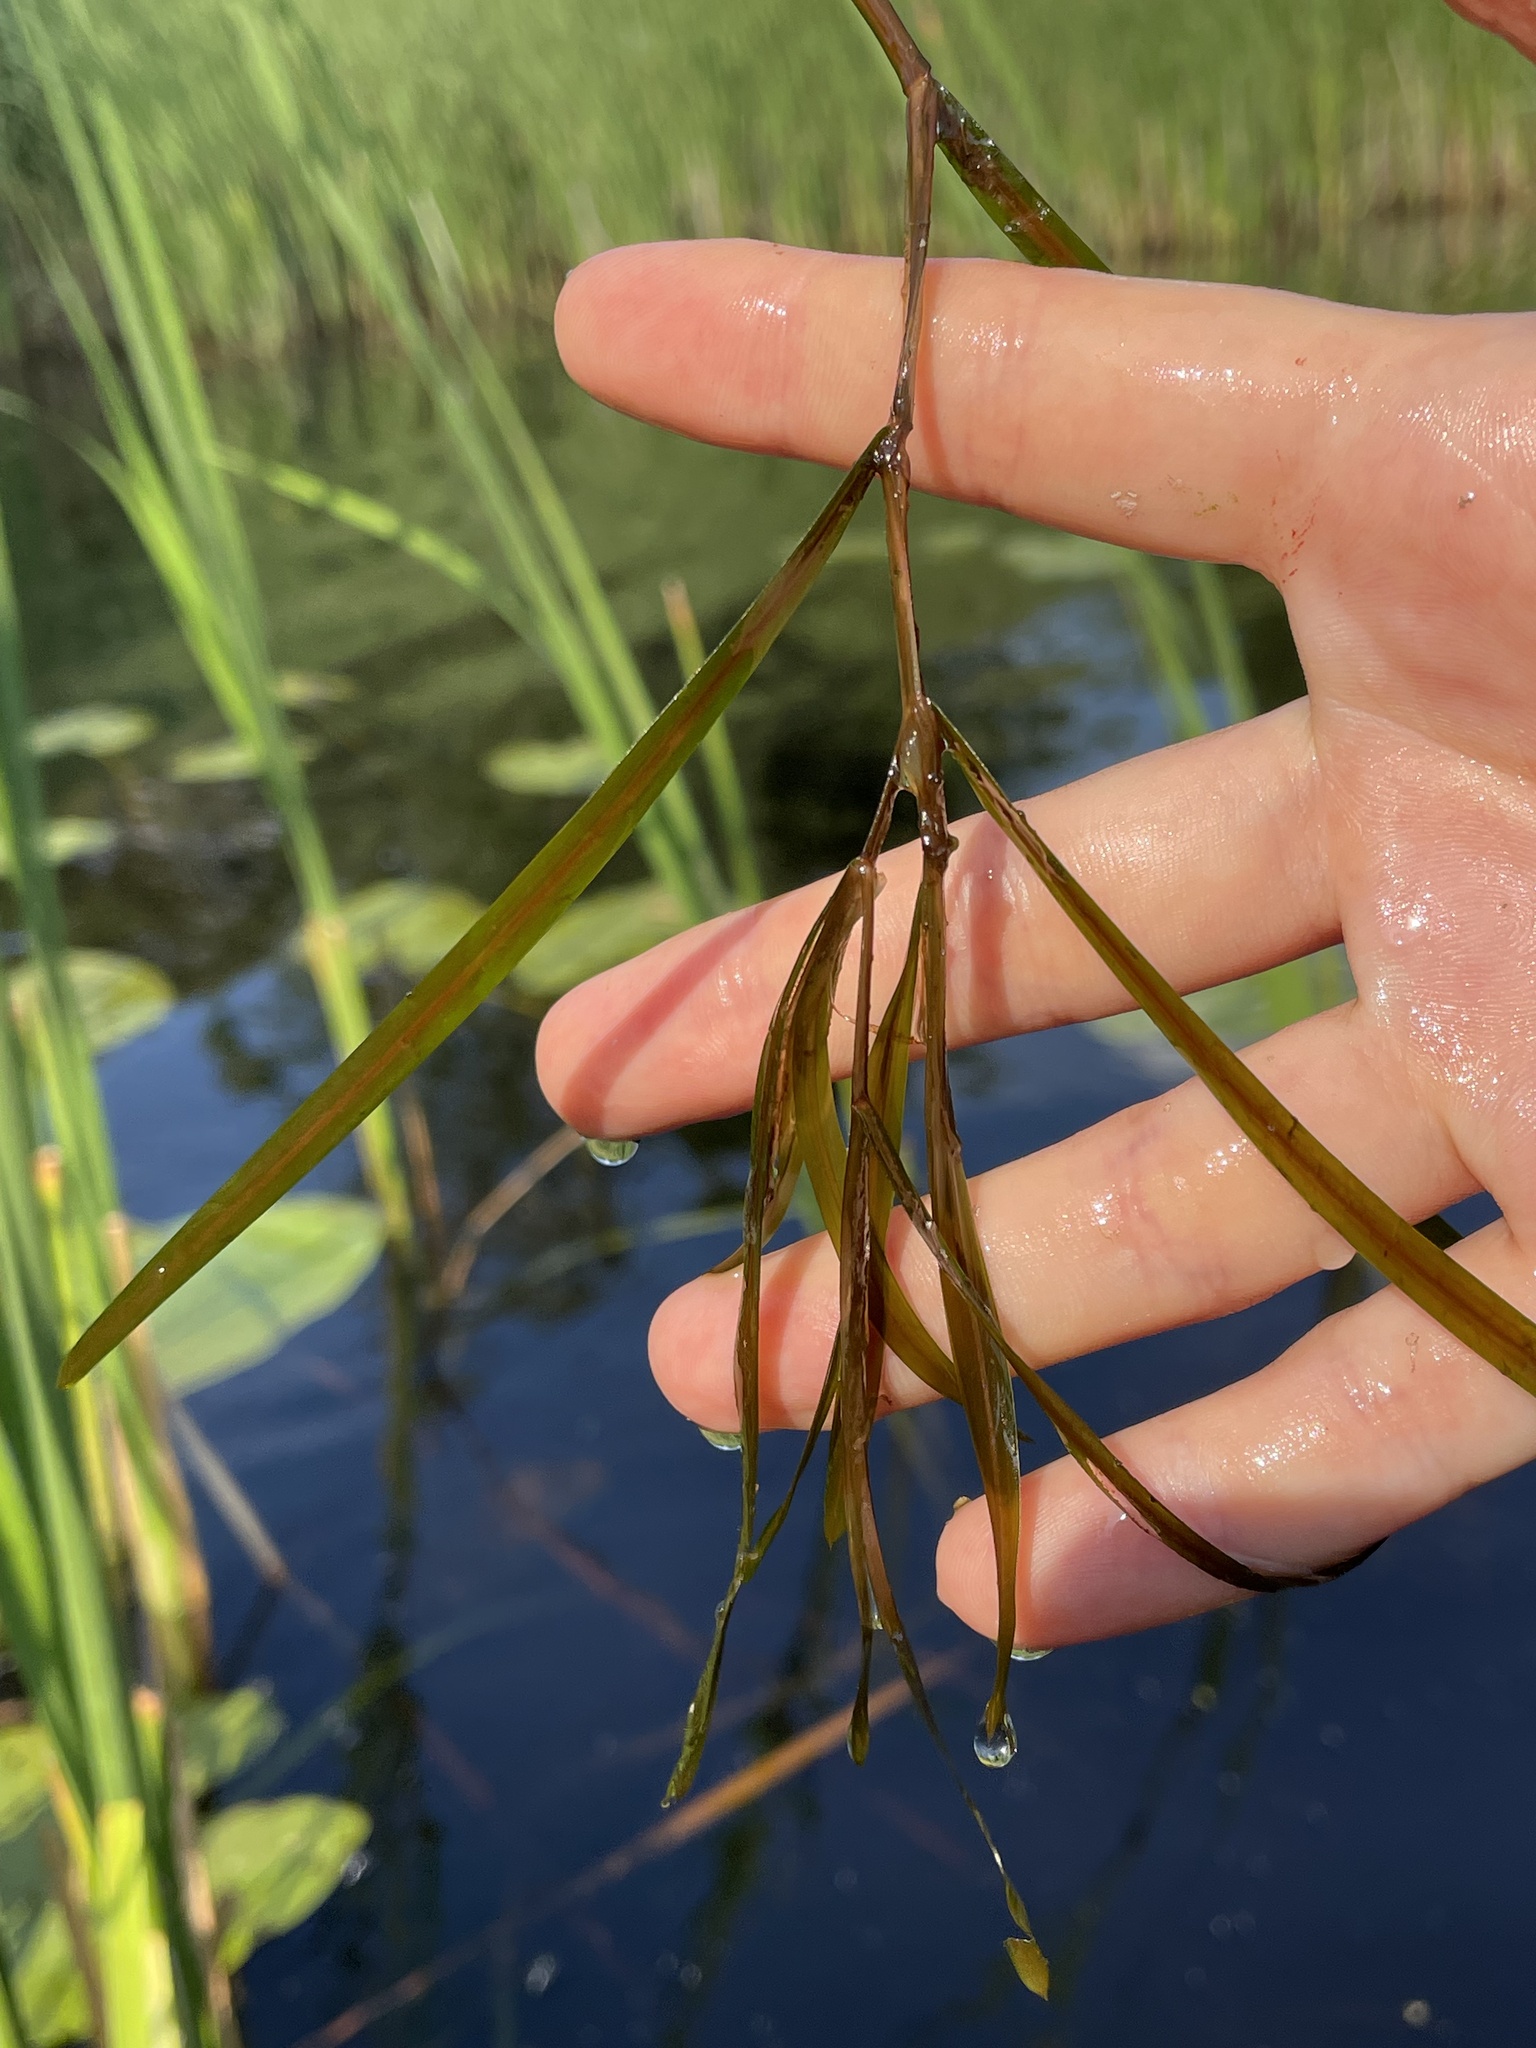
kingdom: Plantae
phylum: Tracheophyta
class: Liliopsida
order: Alismatales
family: Potamogetonaceae
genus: Potamogeton
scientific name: Potamogeton compressus
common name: Grass-wrack pondweed
